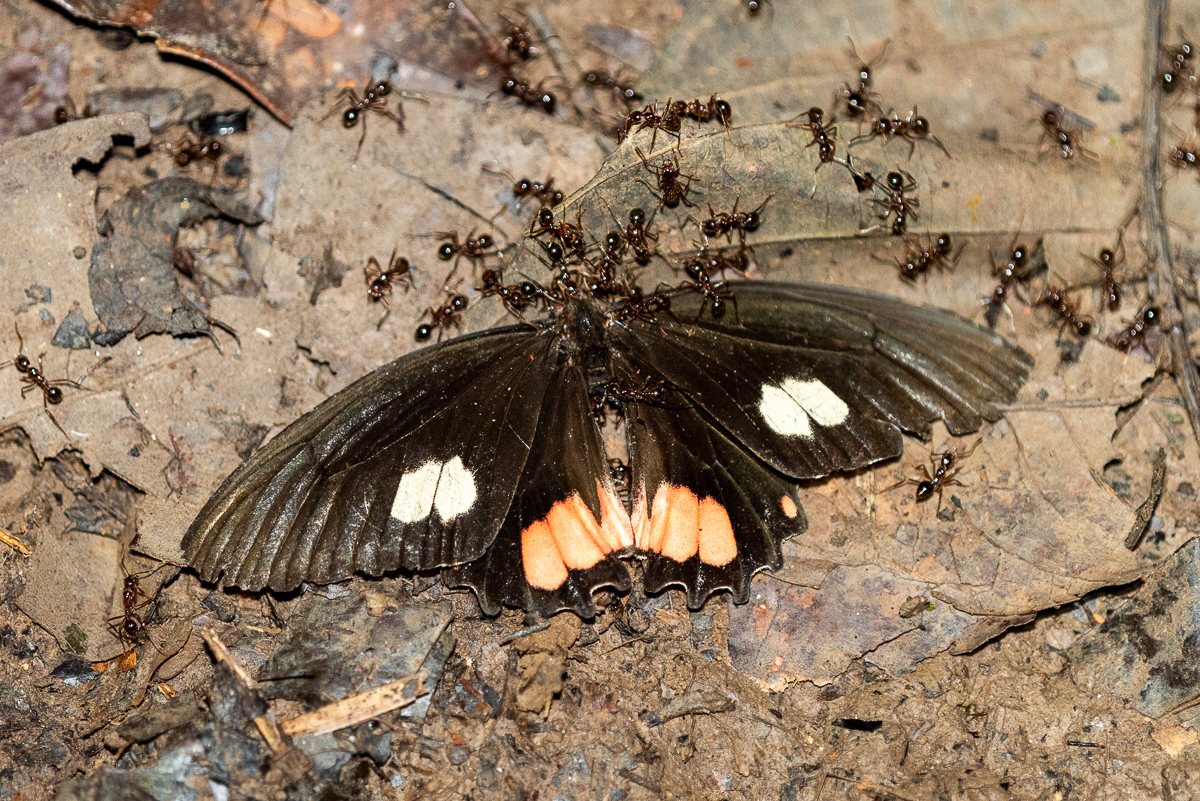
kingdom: Animalia
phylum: Arthropoda
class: Insecta
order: Lepidoptera
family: Papilionidae
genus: Papilio
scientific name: Papilio anchisiades
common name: Idaes swallowtail
